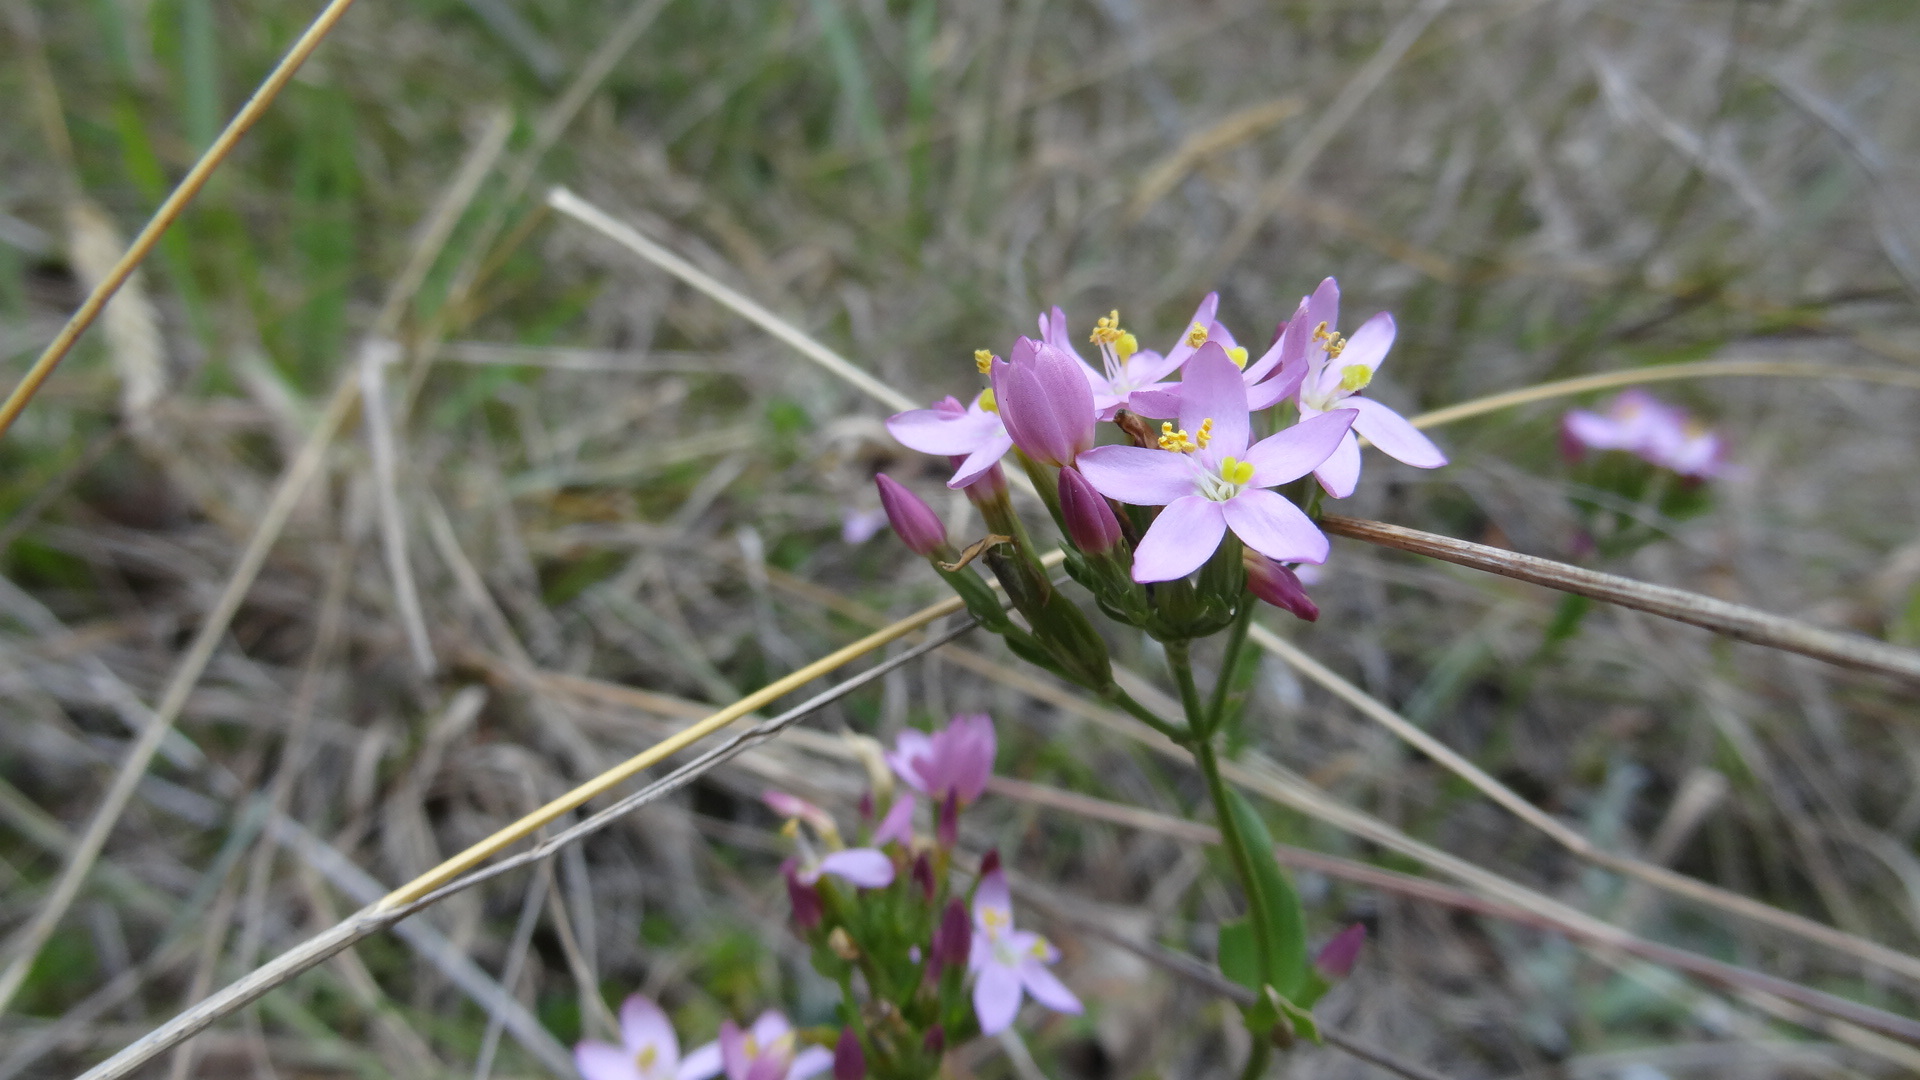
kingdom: Plantae
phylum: Tracheophyta
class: Magnoliopsida
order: Gentianales
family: Gentianaceae
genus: Centaurium
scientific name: Centaurium erythraea
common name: Common centaury
